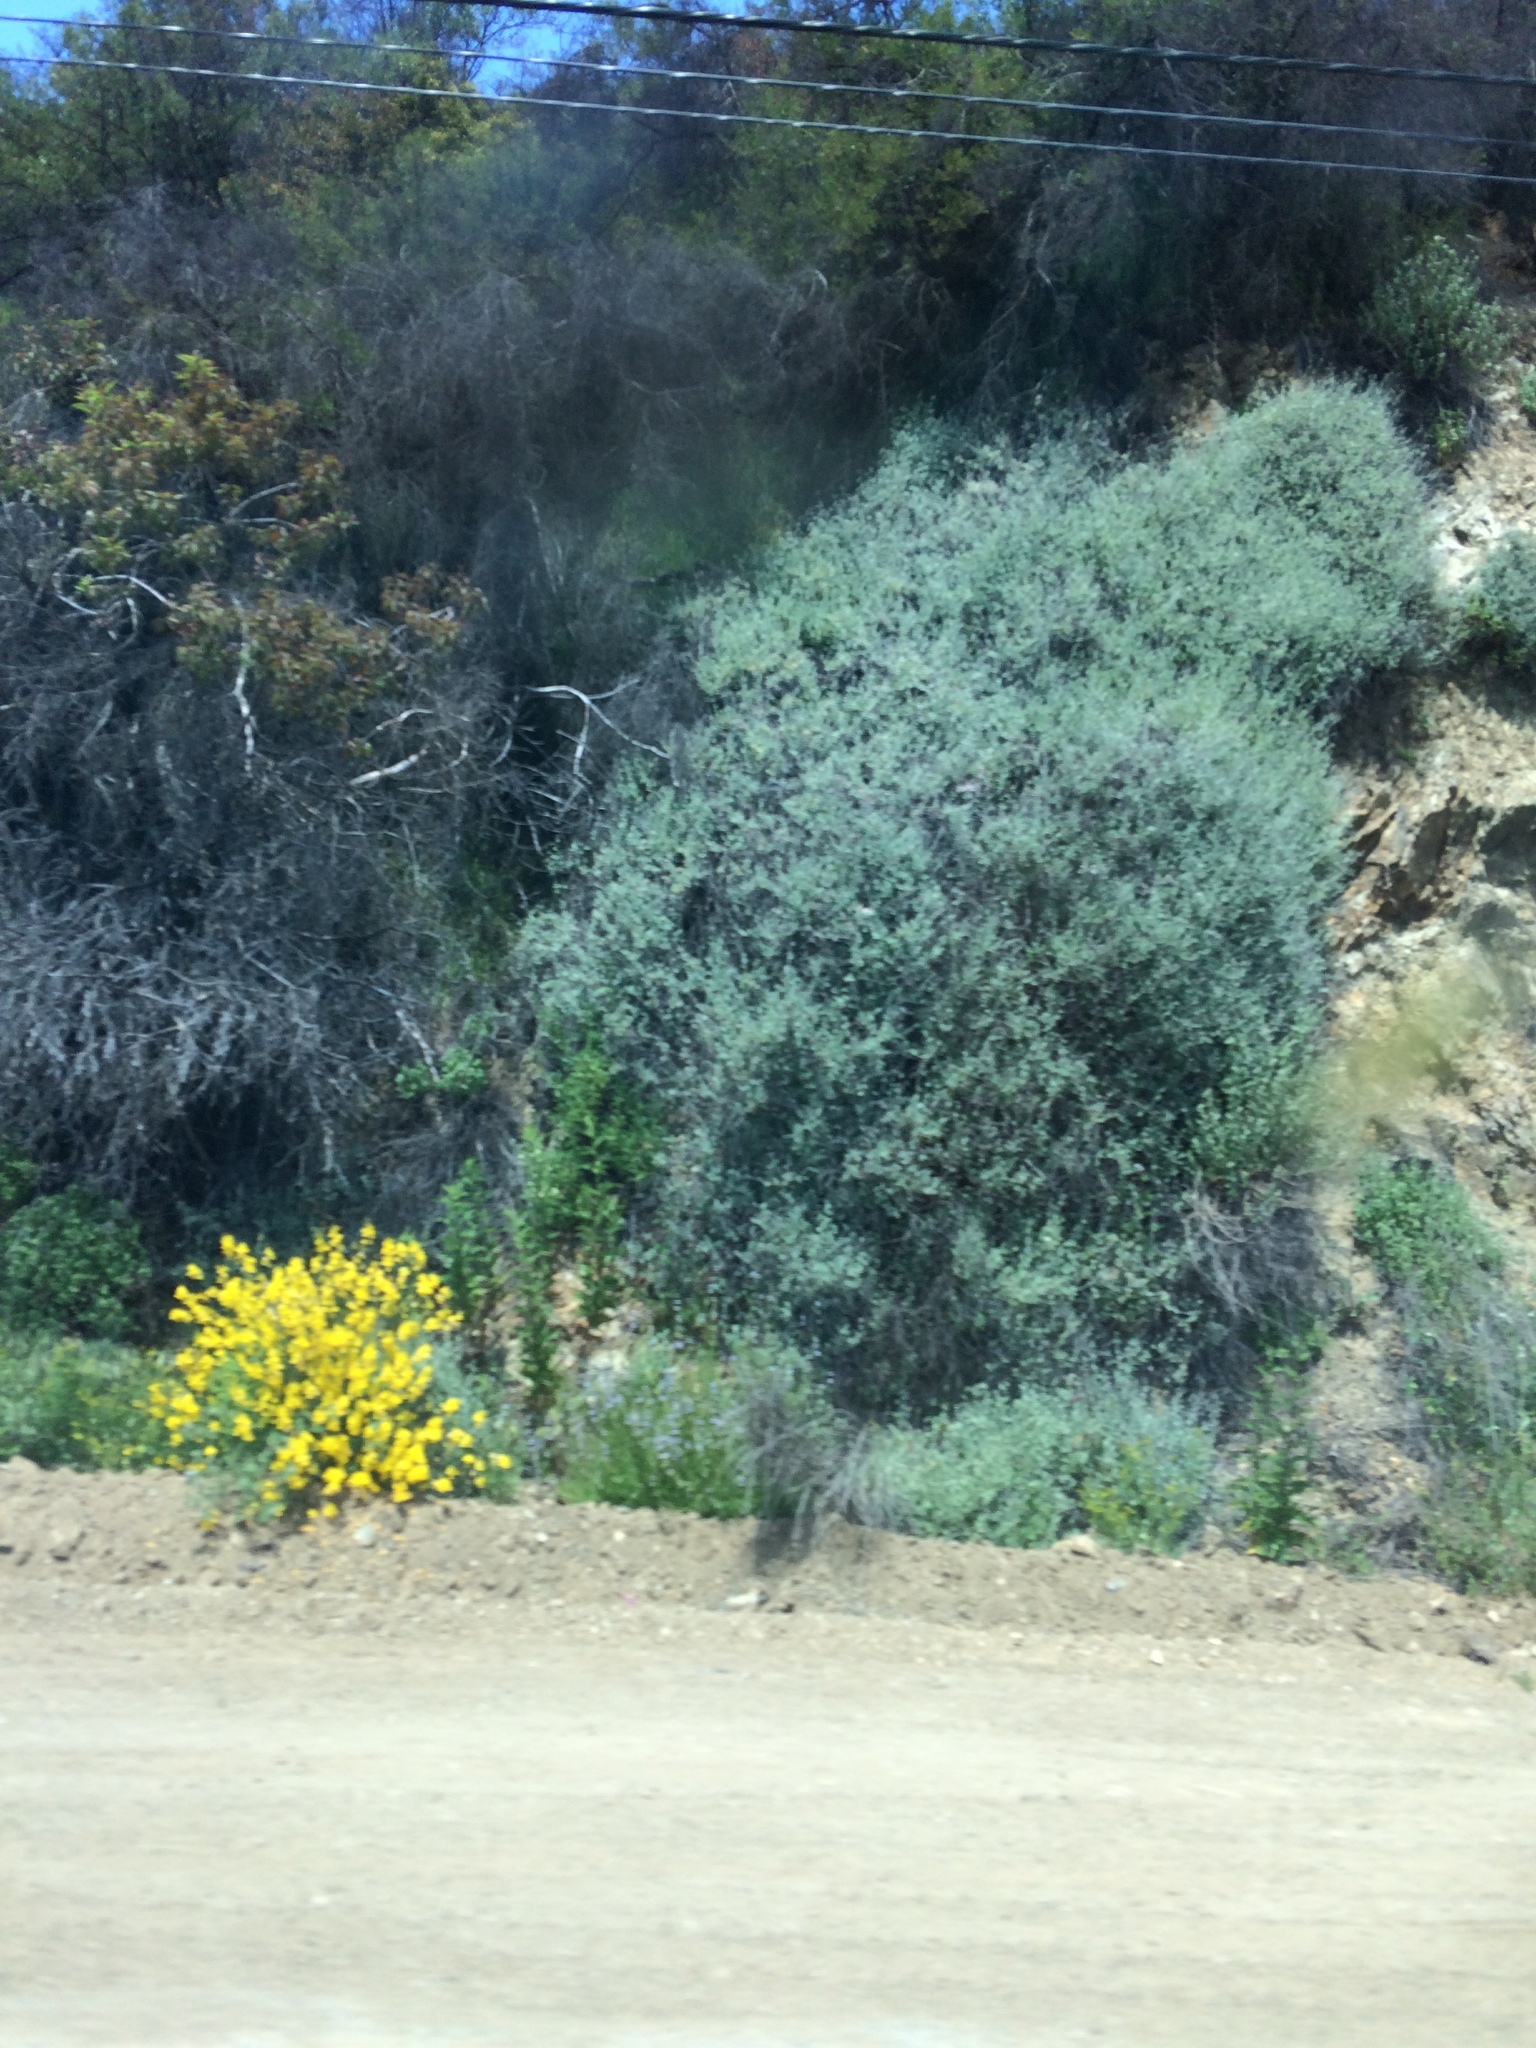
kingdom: Plantae
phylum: Tracheophyta
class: Magnoliopsida
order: Fabales
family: Fabaceae
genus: Spartium
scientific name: Spartium junceum
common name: Spanish broom
